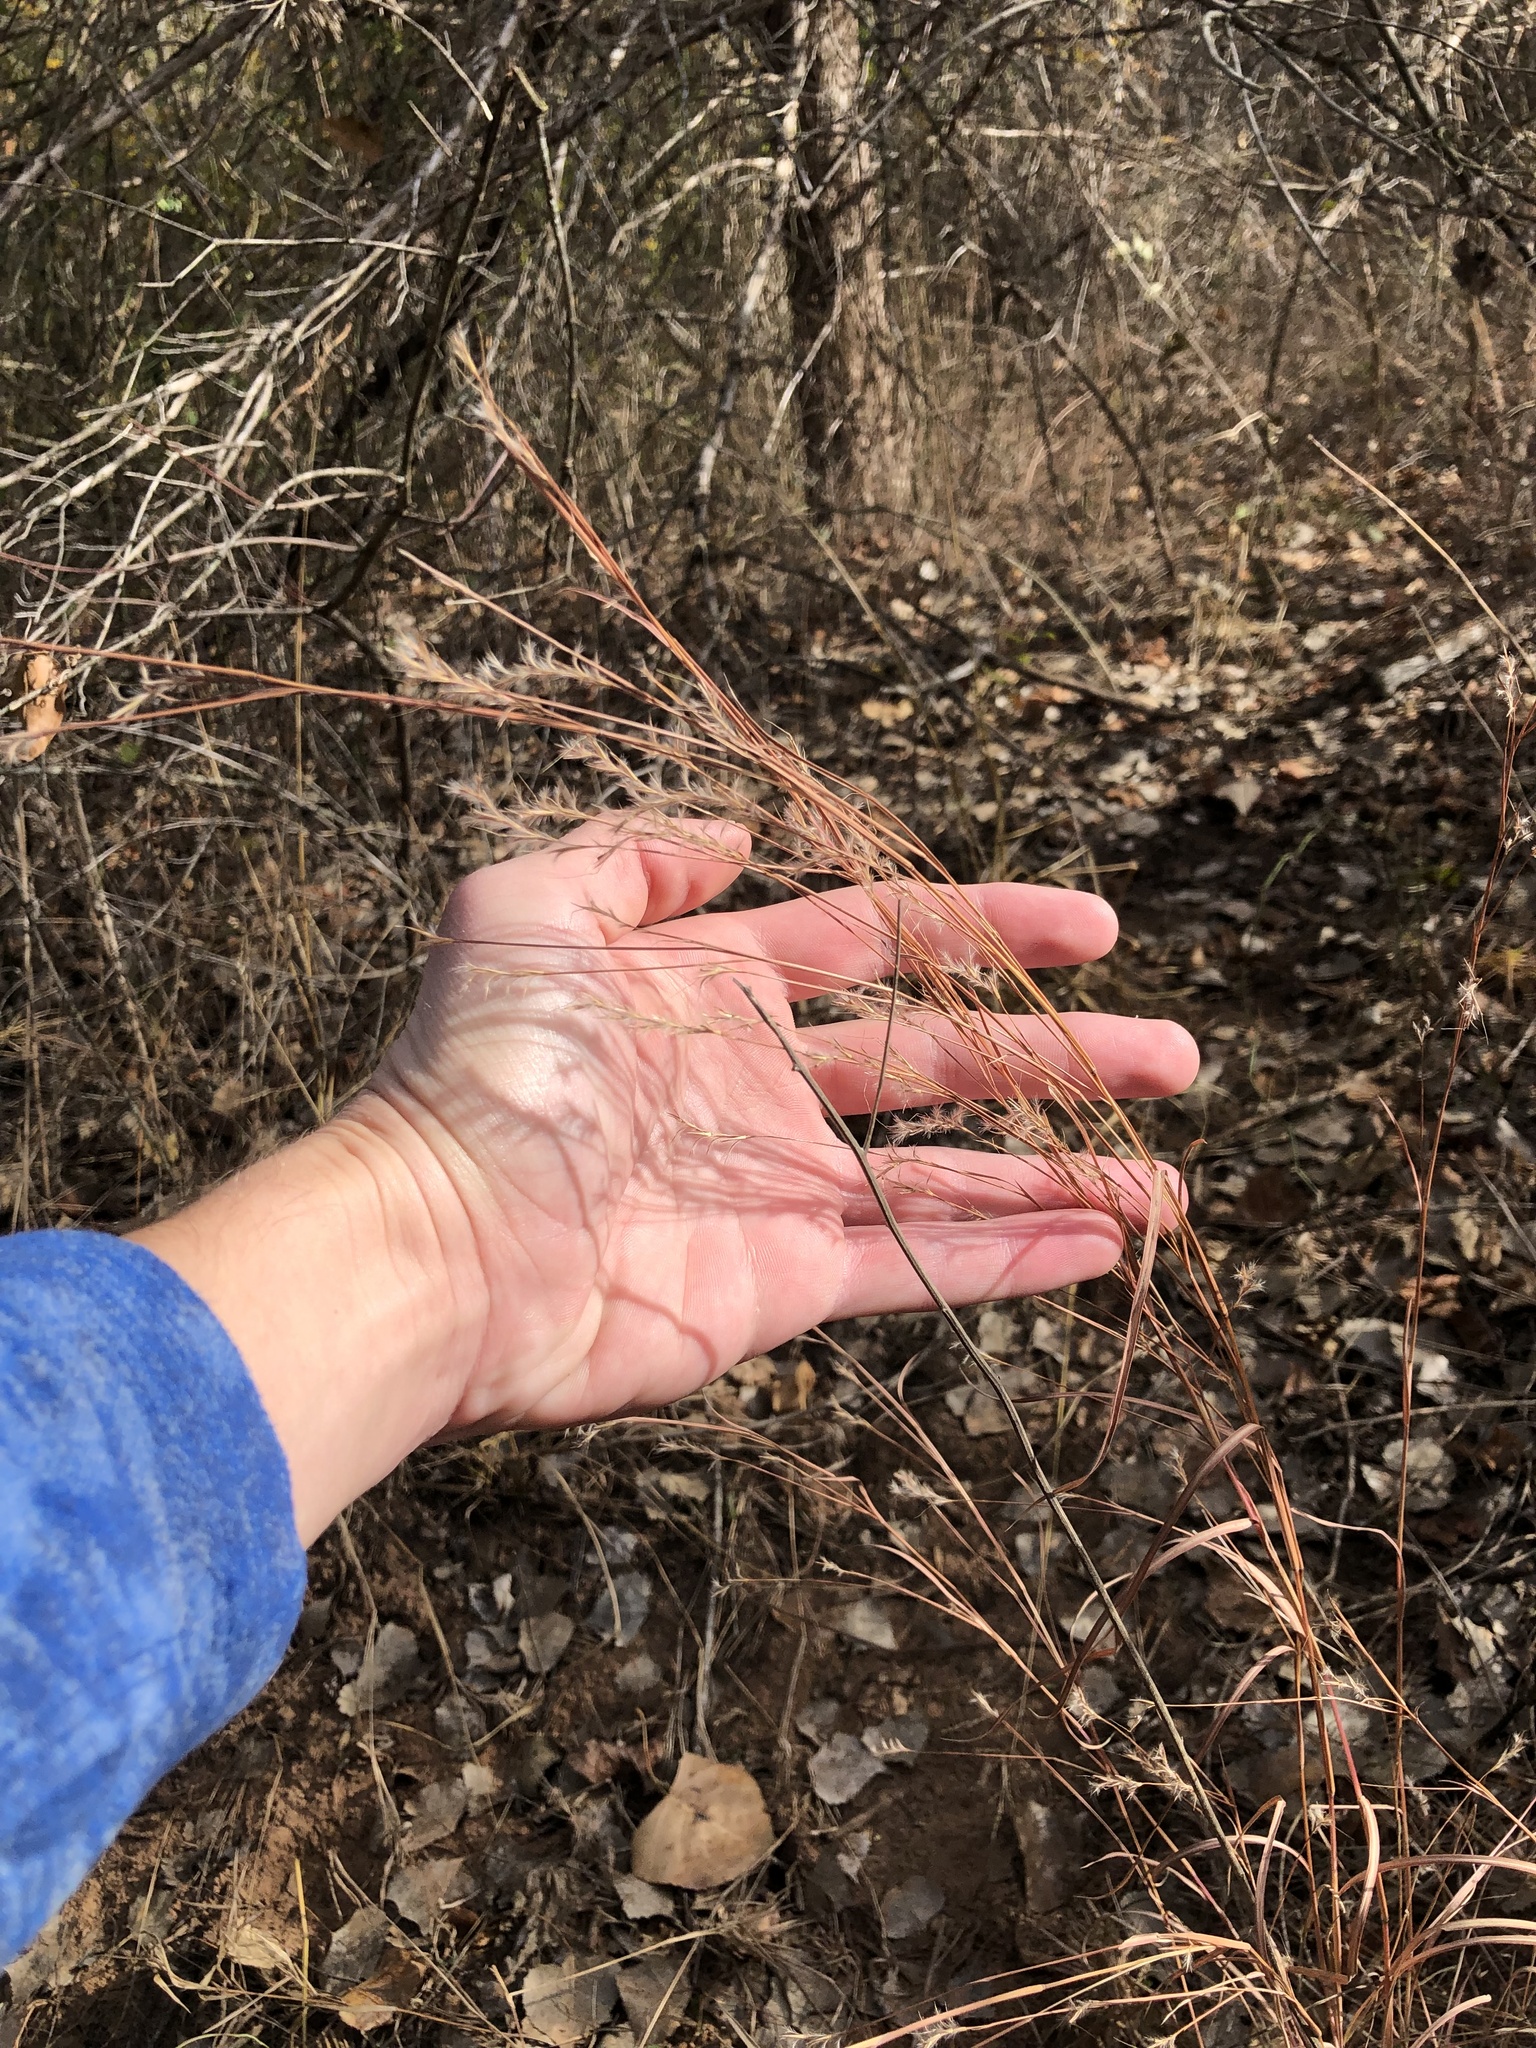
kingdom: Plantae
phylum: Tracheophyta
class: Liliopsida
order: Poales
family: Poaceae
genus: Schizachyrium
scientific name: Schizachyrium scoparium
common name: Little bluestem
